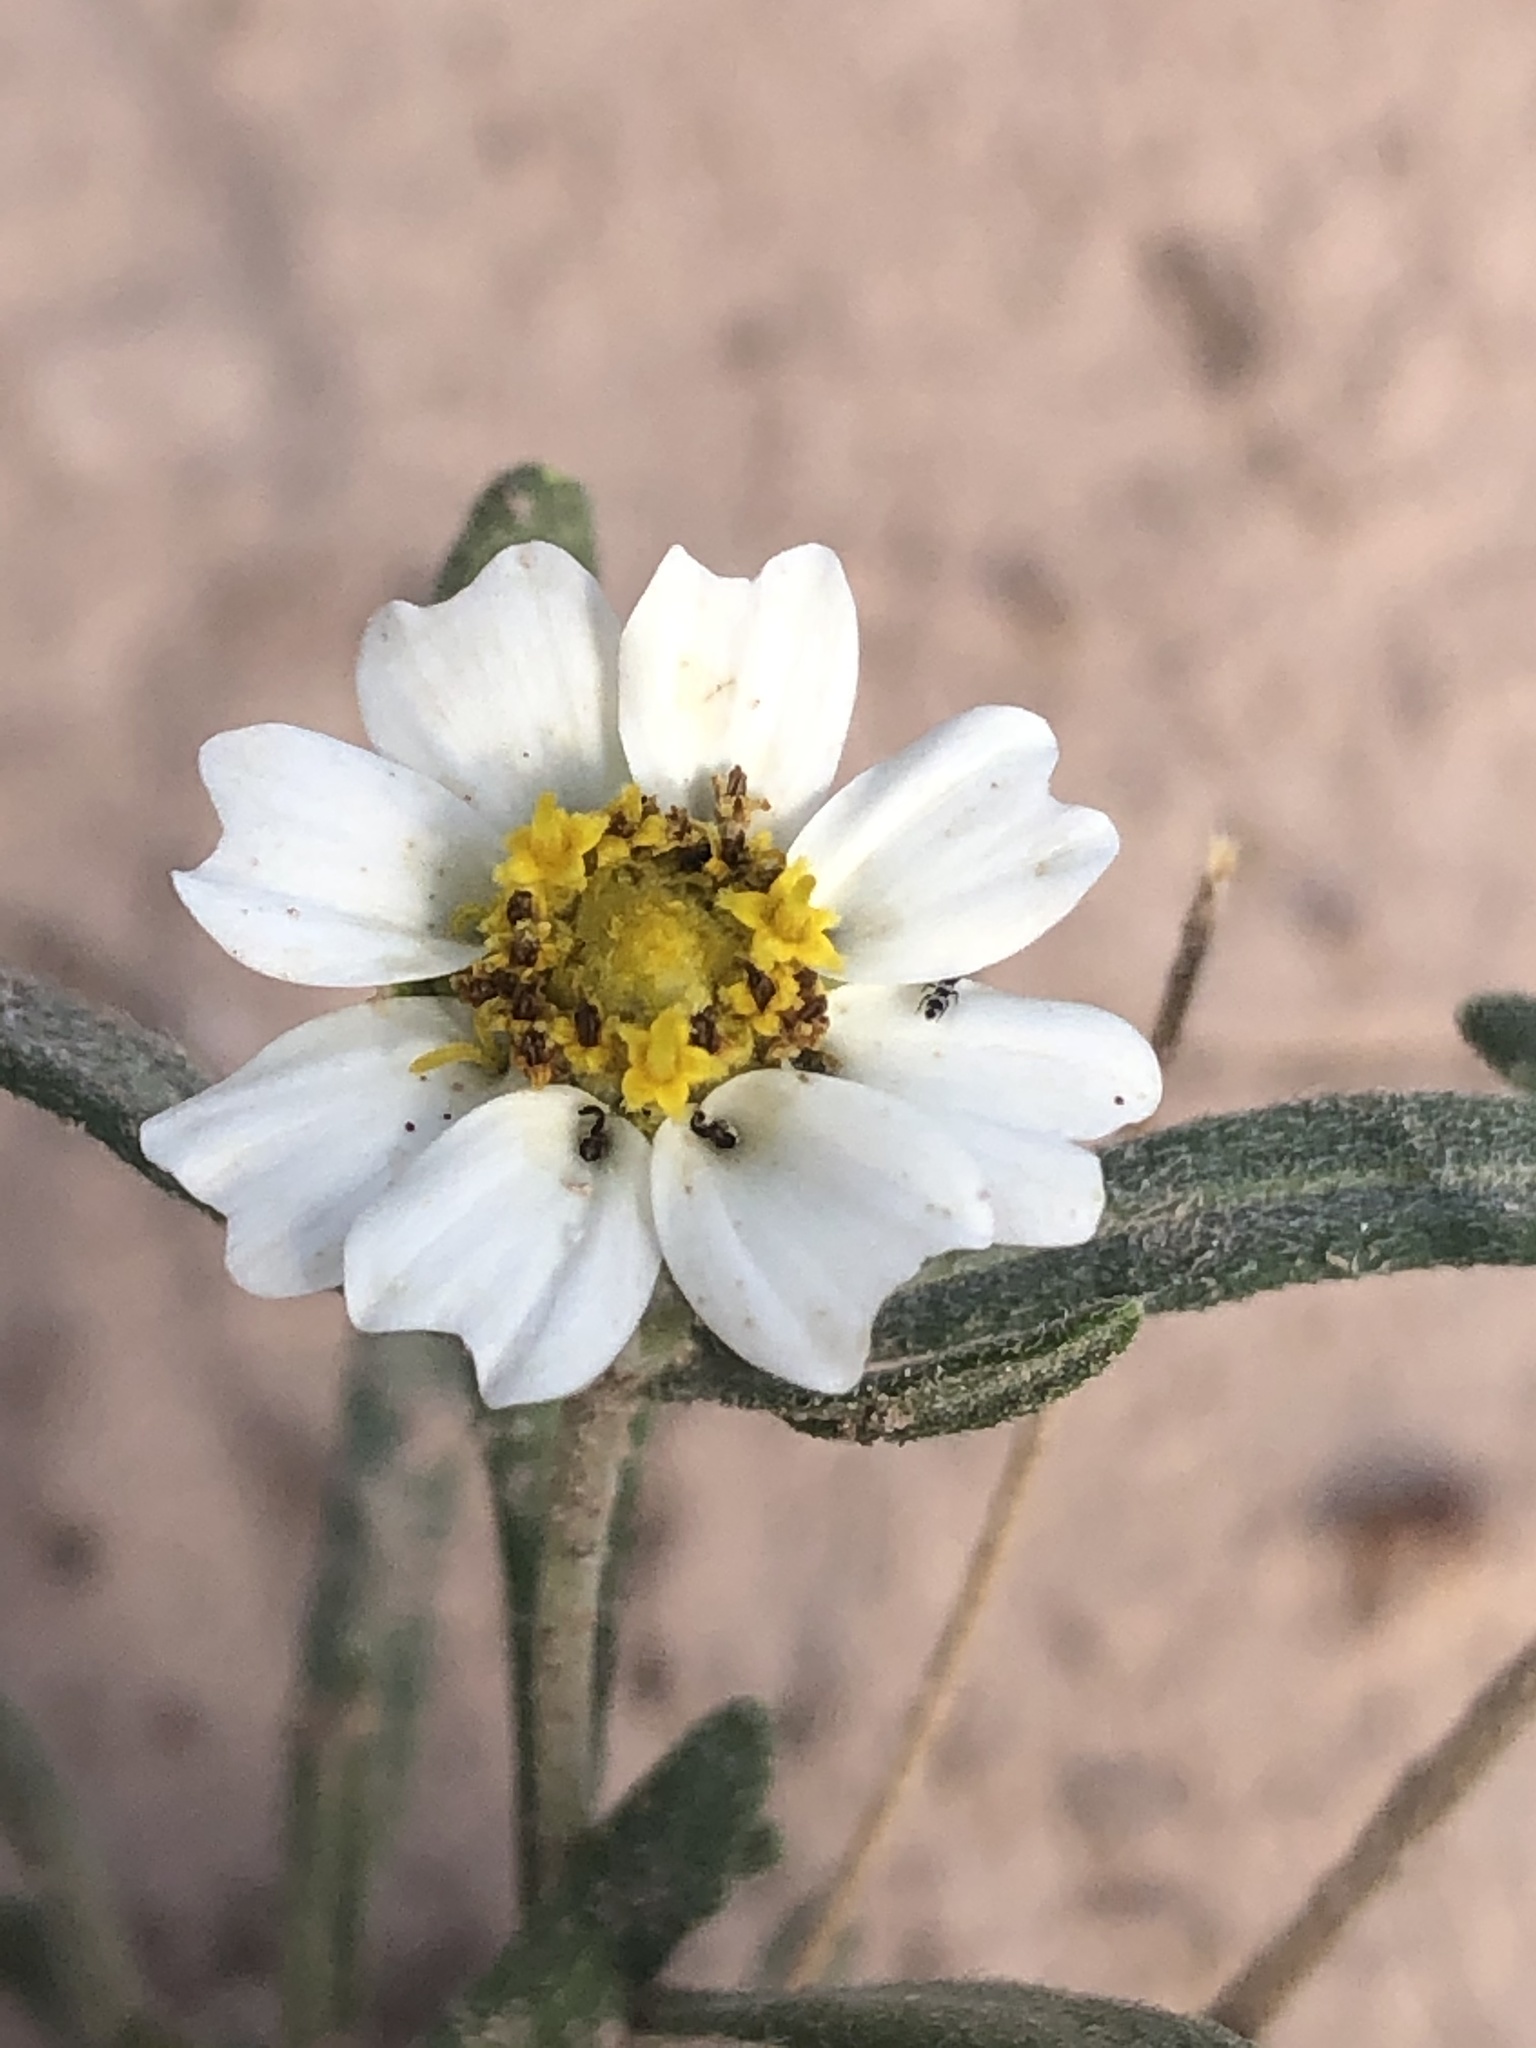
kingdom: Plantae
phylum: Tracheophyta
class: Magnoliopsida
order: Asterales
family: Asteraceae
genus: Melampodium
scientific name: Melampodium leucanthum
